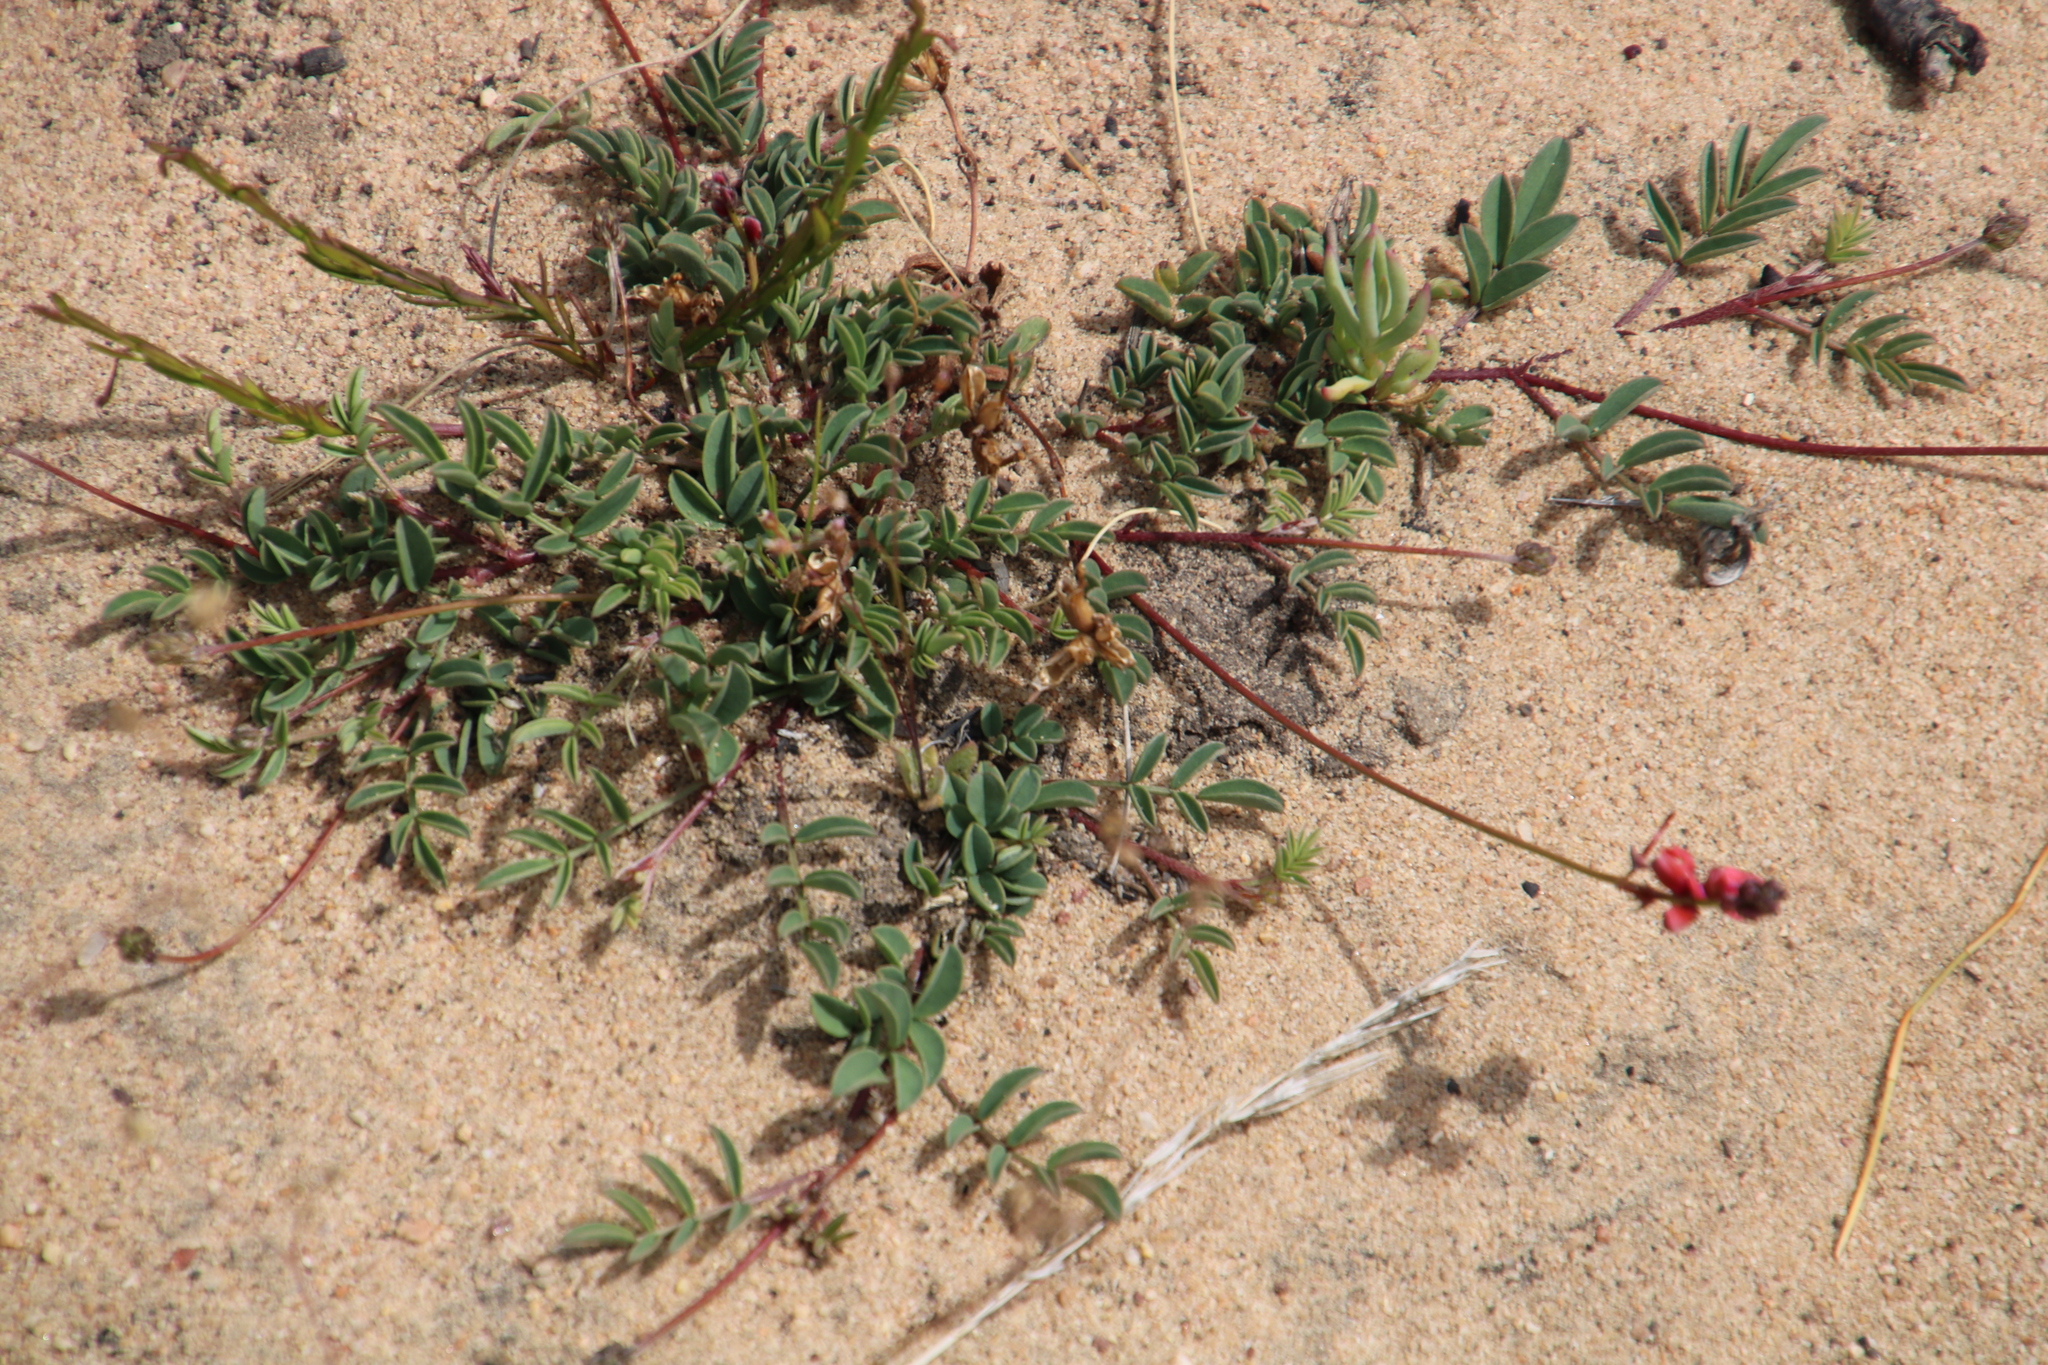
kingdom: Plantae
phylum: Tracheophyta
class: Magnoliopsida
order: Fabales
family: Fabaceae
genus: Indigofera
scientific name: Indigofera capillaris
